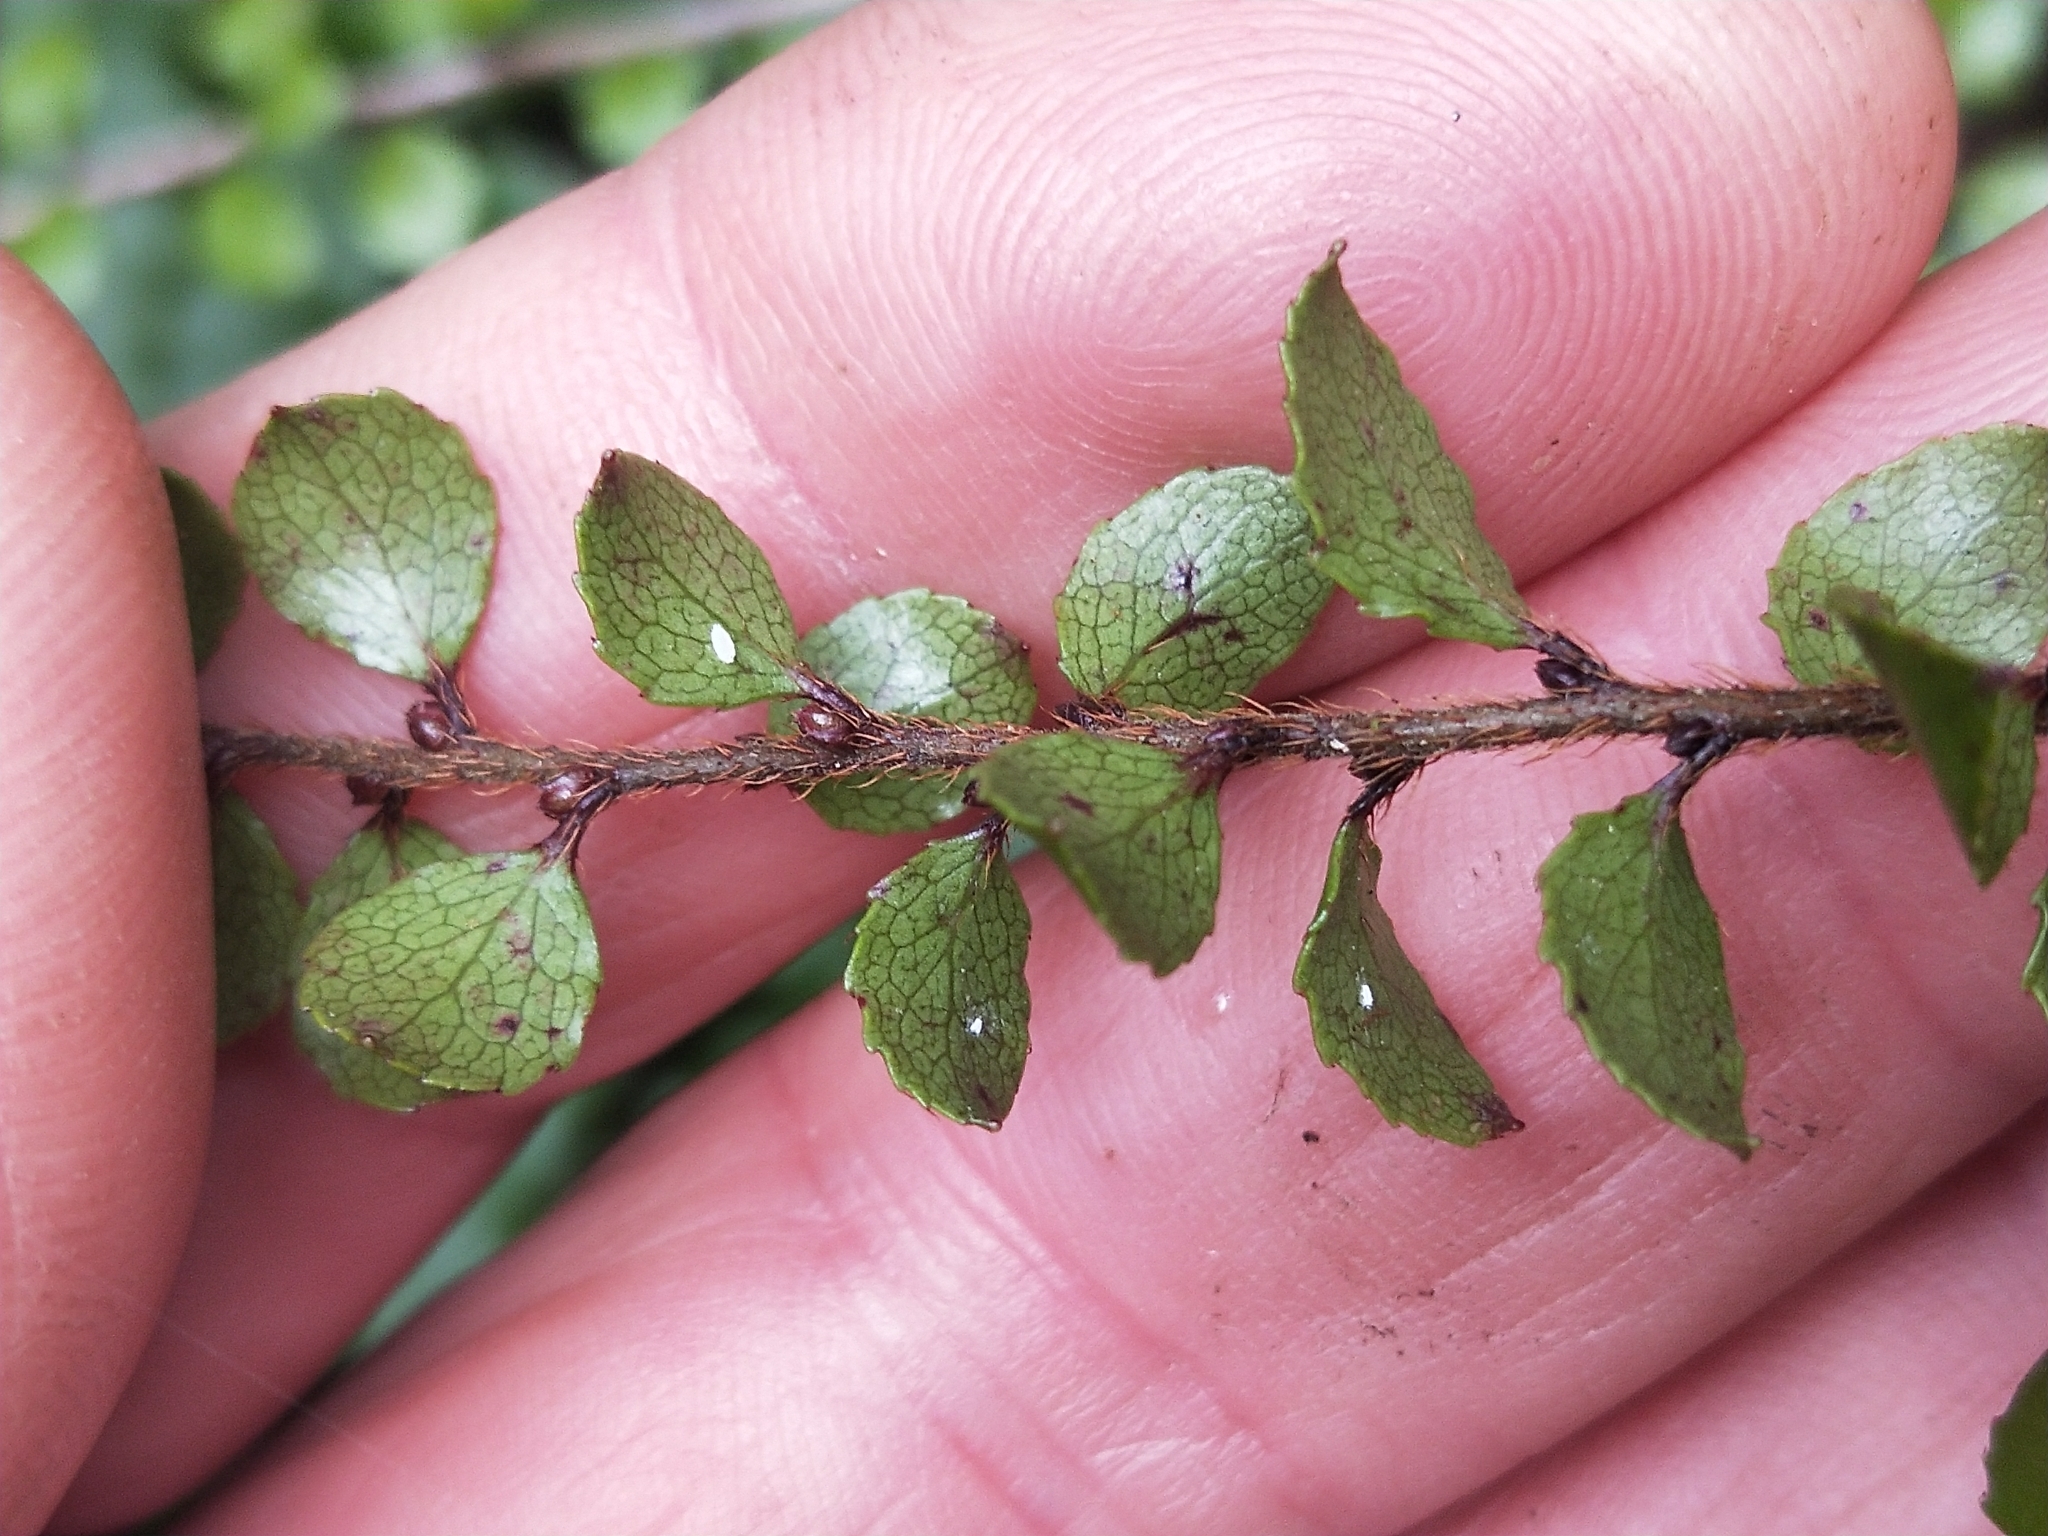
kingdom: Plantae
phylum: Tracheophyta
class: Magnoliopsida
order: Ericales
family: Ericaceae
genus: Gaultheria
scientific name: Gaultheria antipoda
